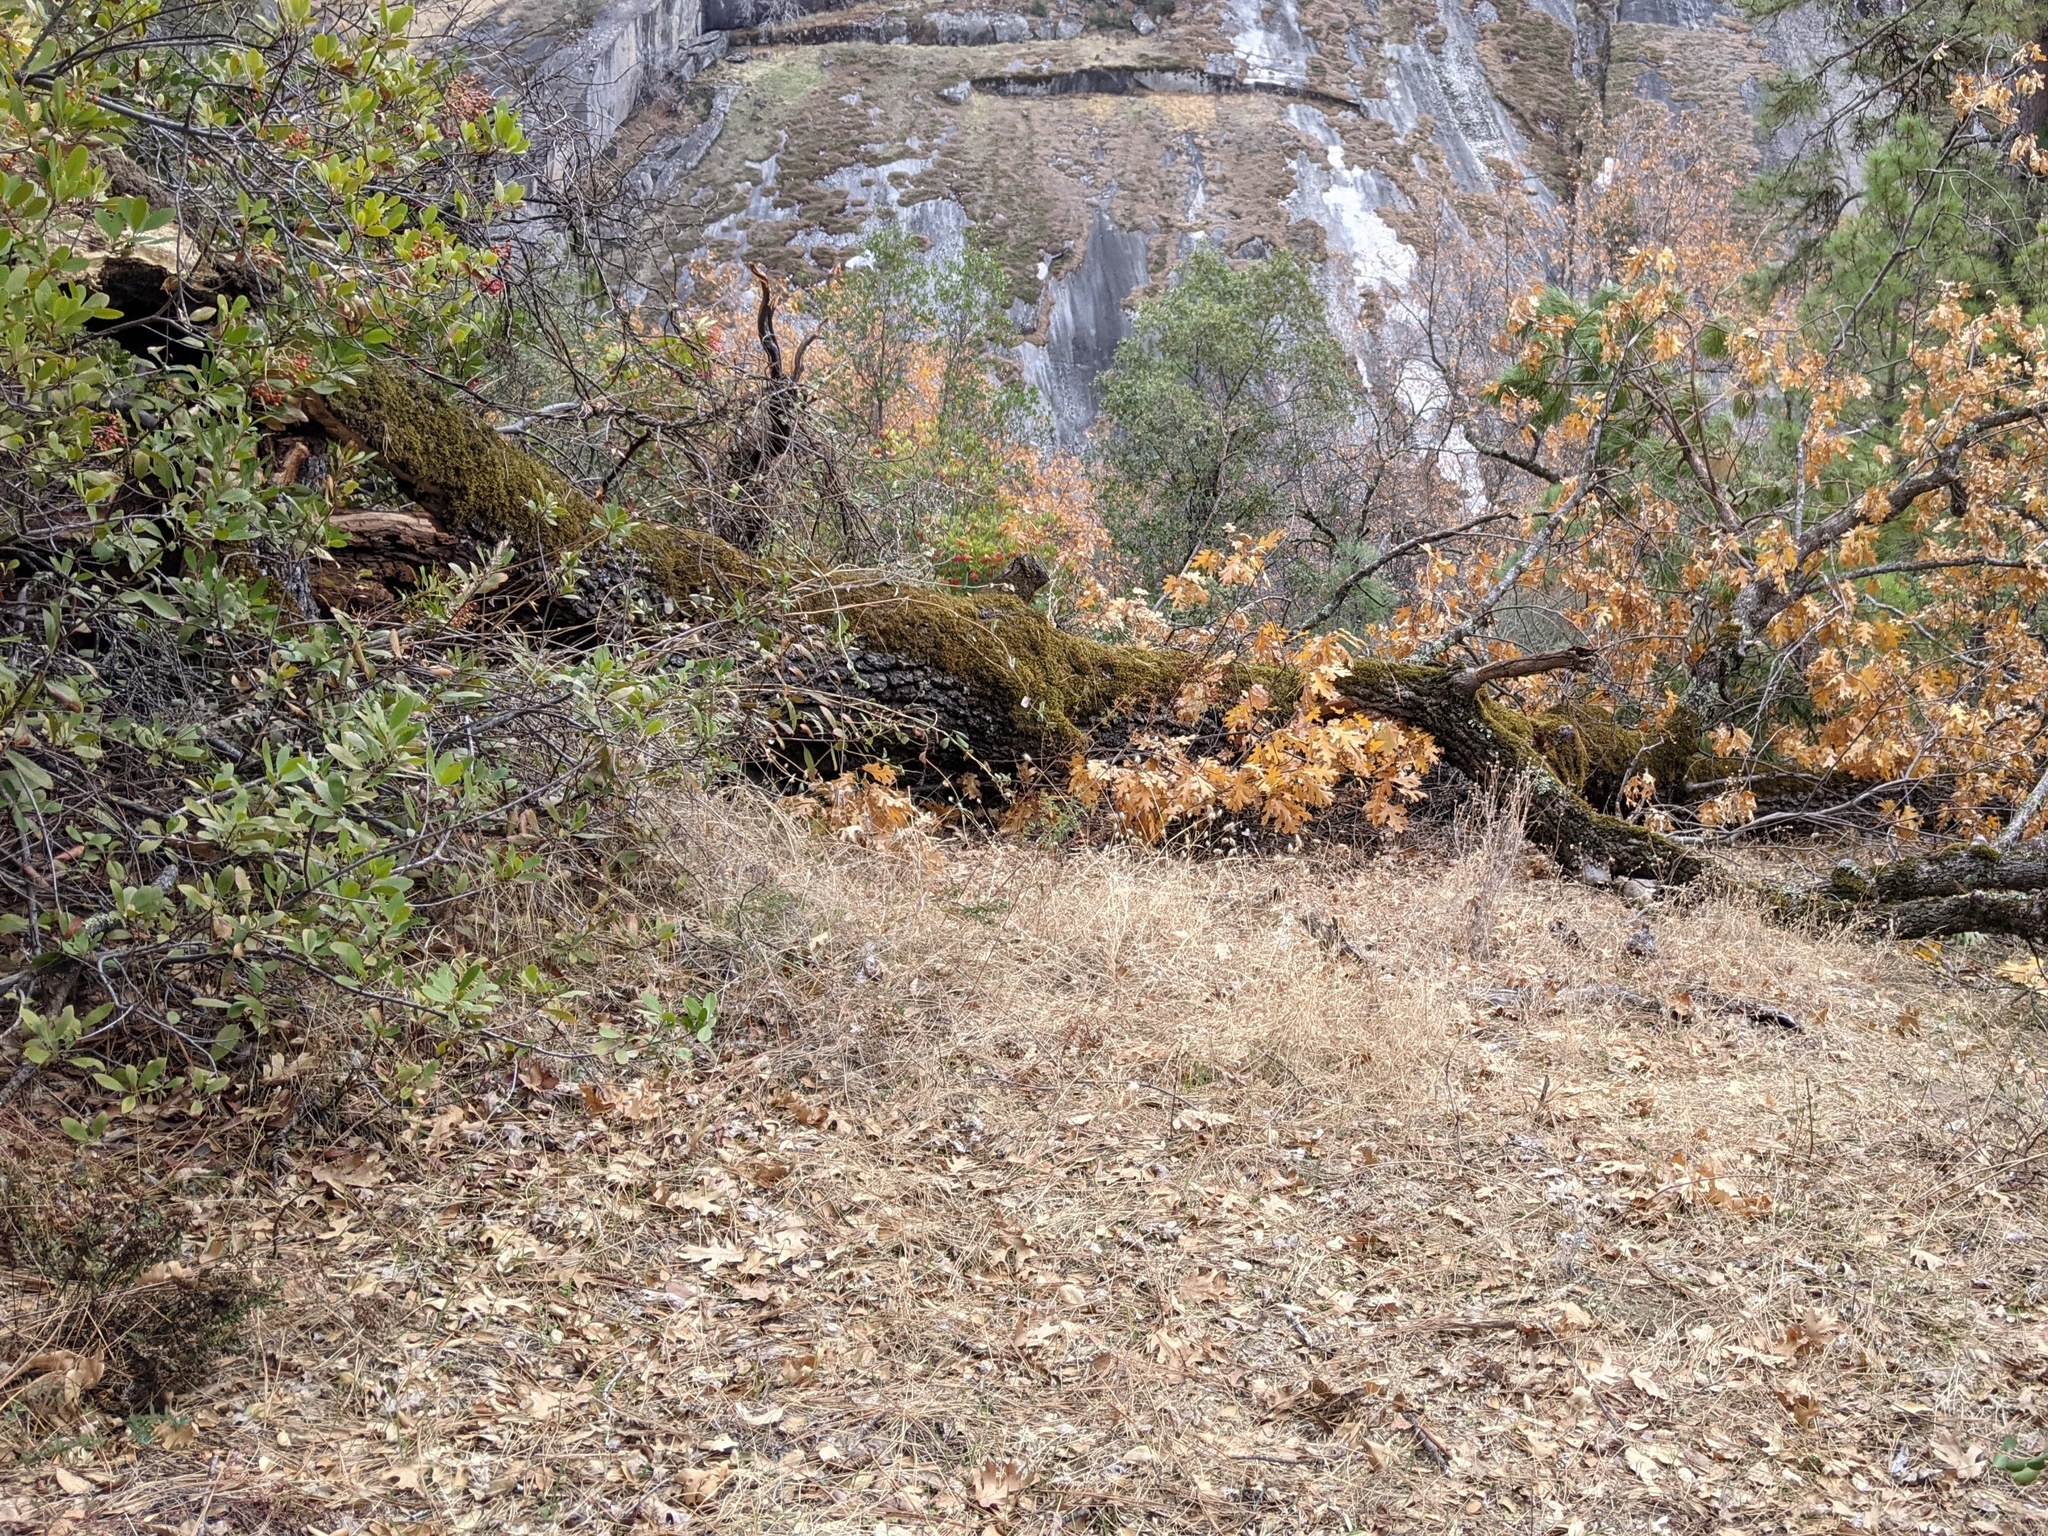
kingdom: Plantae
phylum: Tracheophyta
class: Magnoliopsida
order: Fagales
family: Fagaceae
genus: Quercus
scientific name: Quercus kelloggii
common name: California black oak
